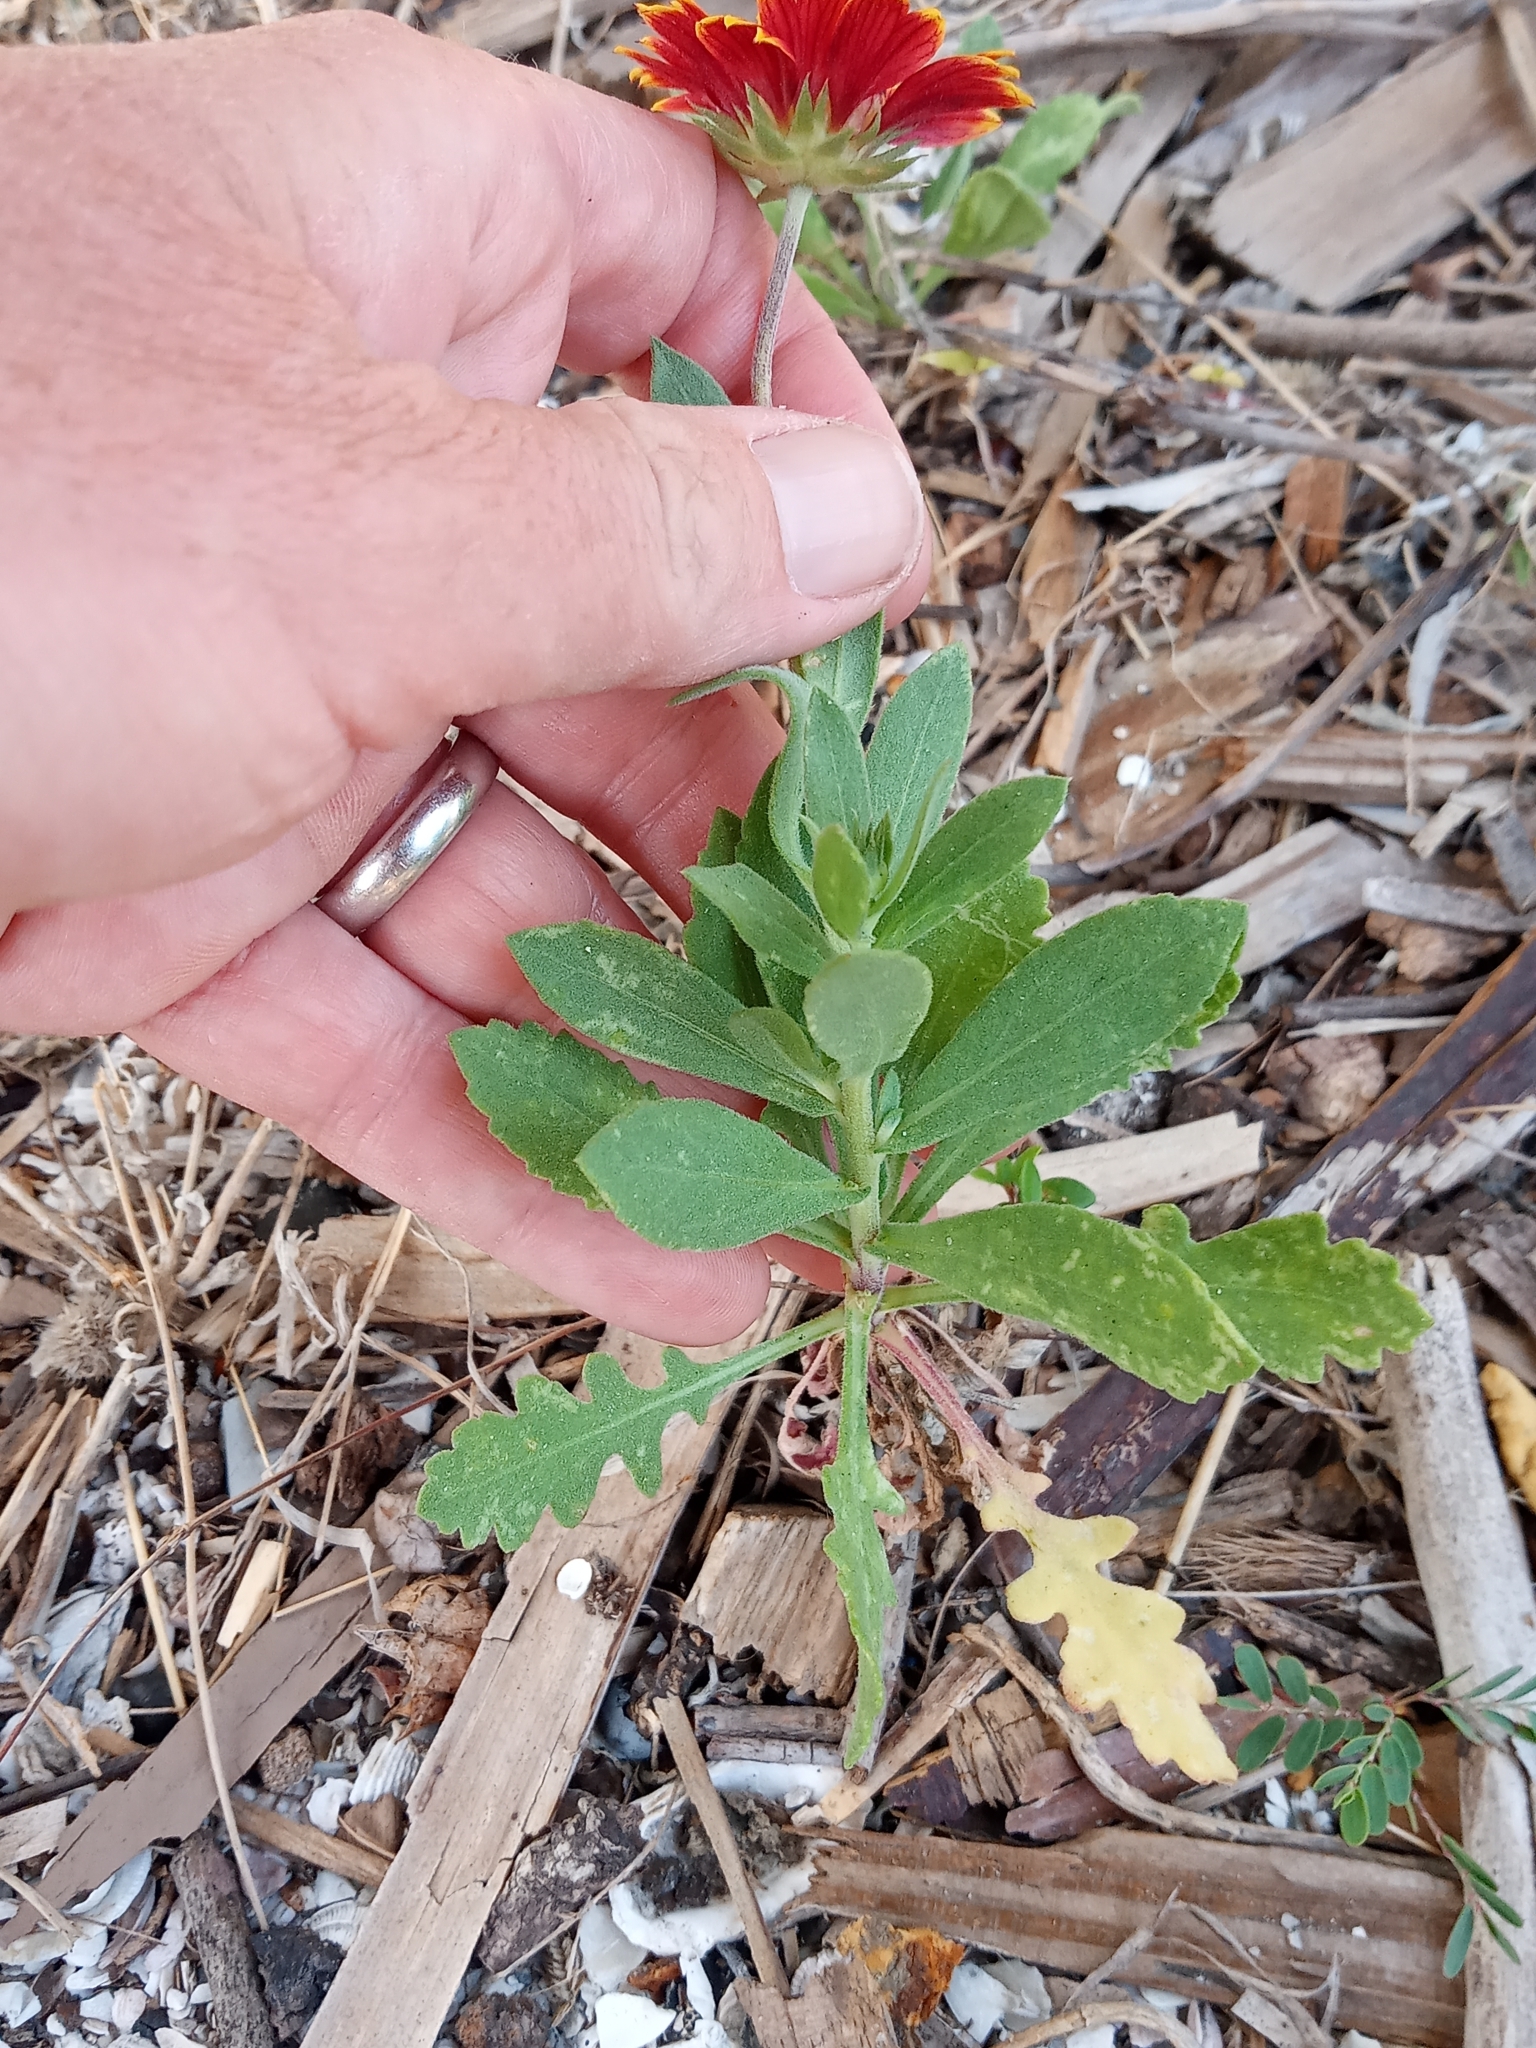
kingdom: Plantae
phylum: Tracheophyta
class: Magnoliopsida
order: Asterales
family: Asteraceae
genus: Gaillardia
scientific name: Gaillardia pulchella
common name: Firewheel
